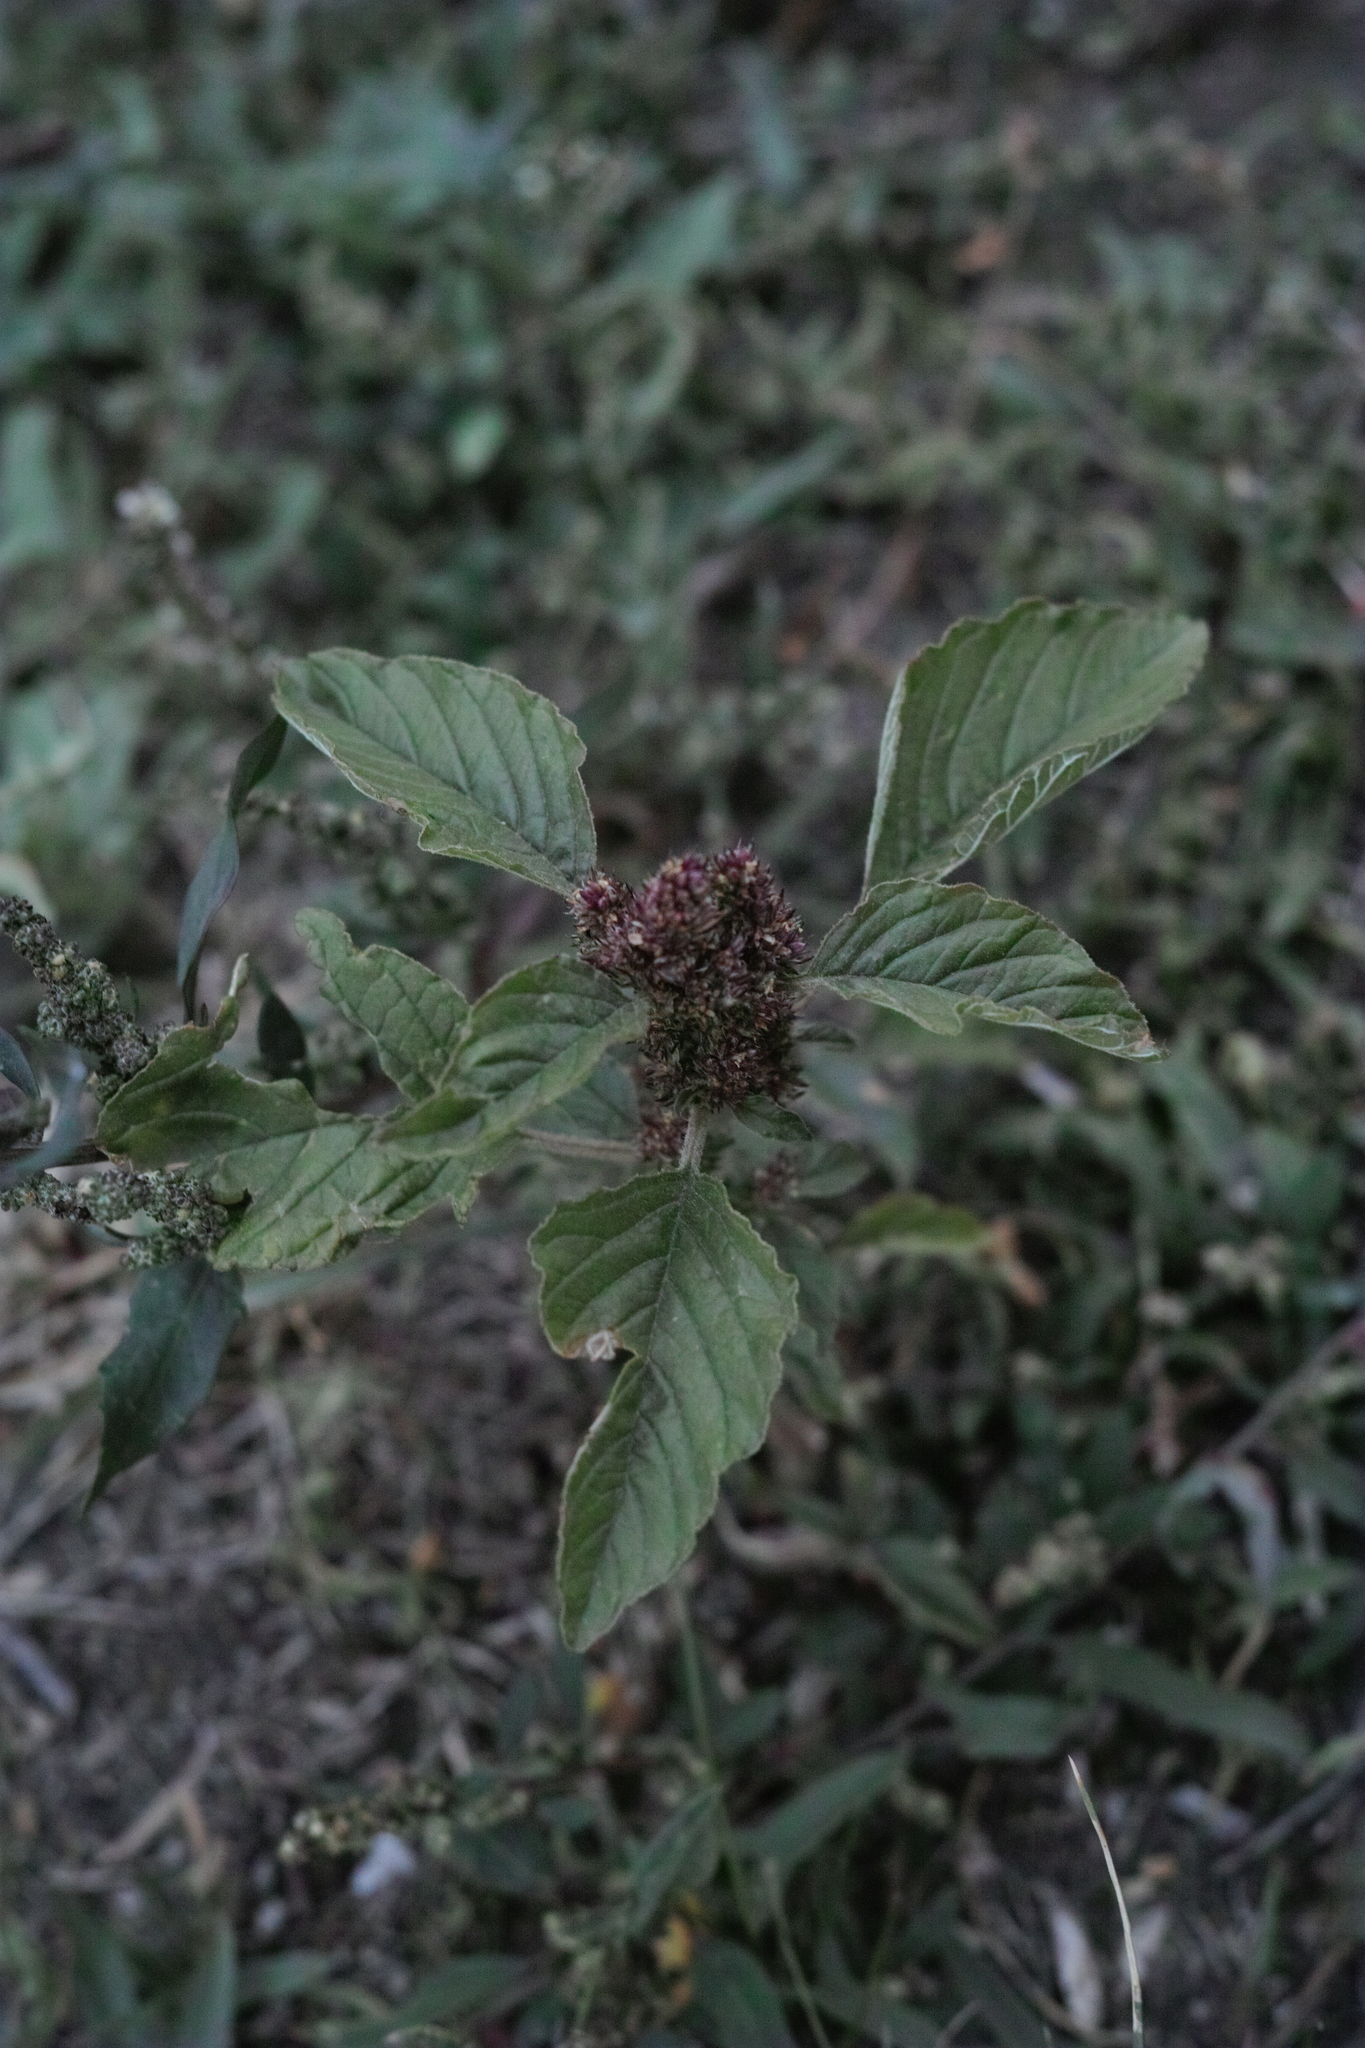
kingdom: Plantae
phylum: Tracheophyta
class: Magnoliopsida
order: Caryophyllales
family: Amaranthaceae
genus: Amaranthus
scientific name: Amaranthus retroflexus
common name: Redroot amaranth
